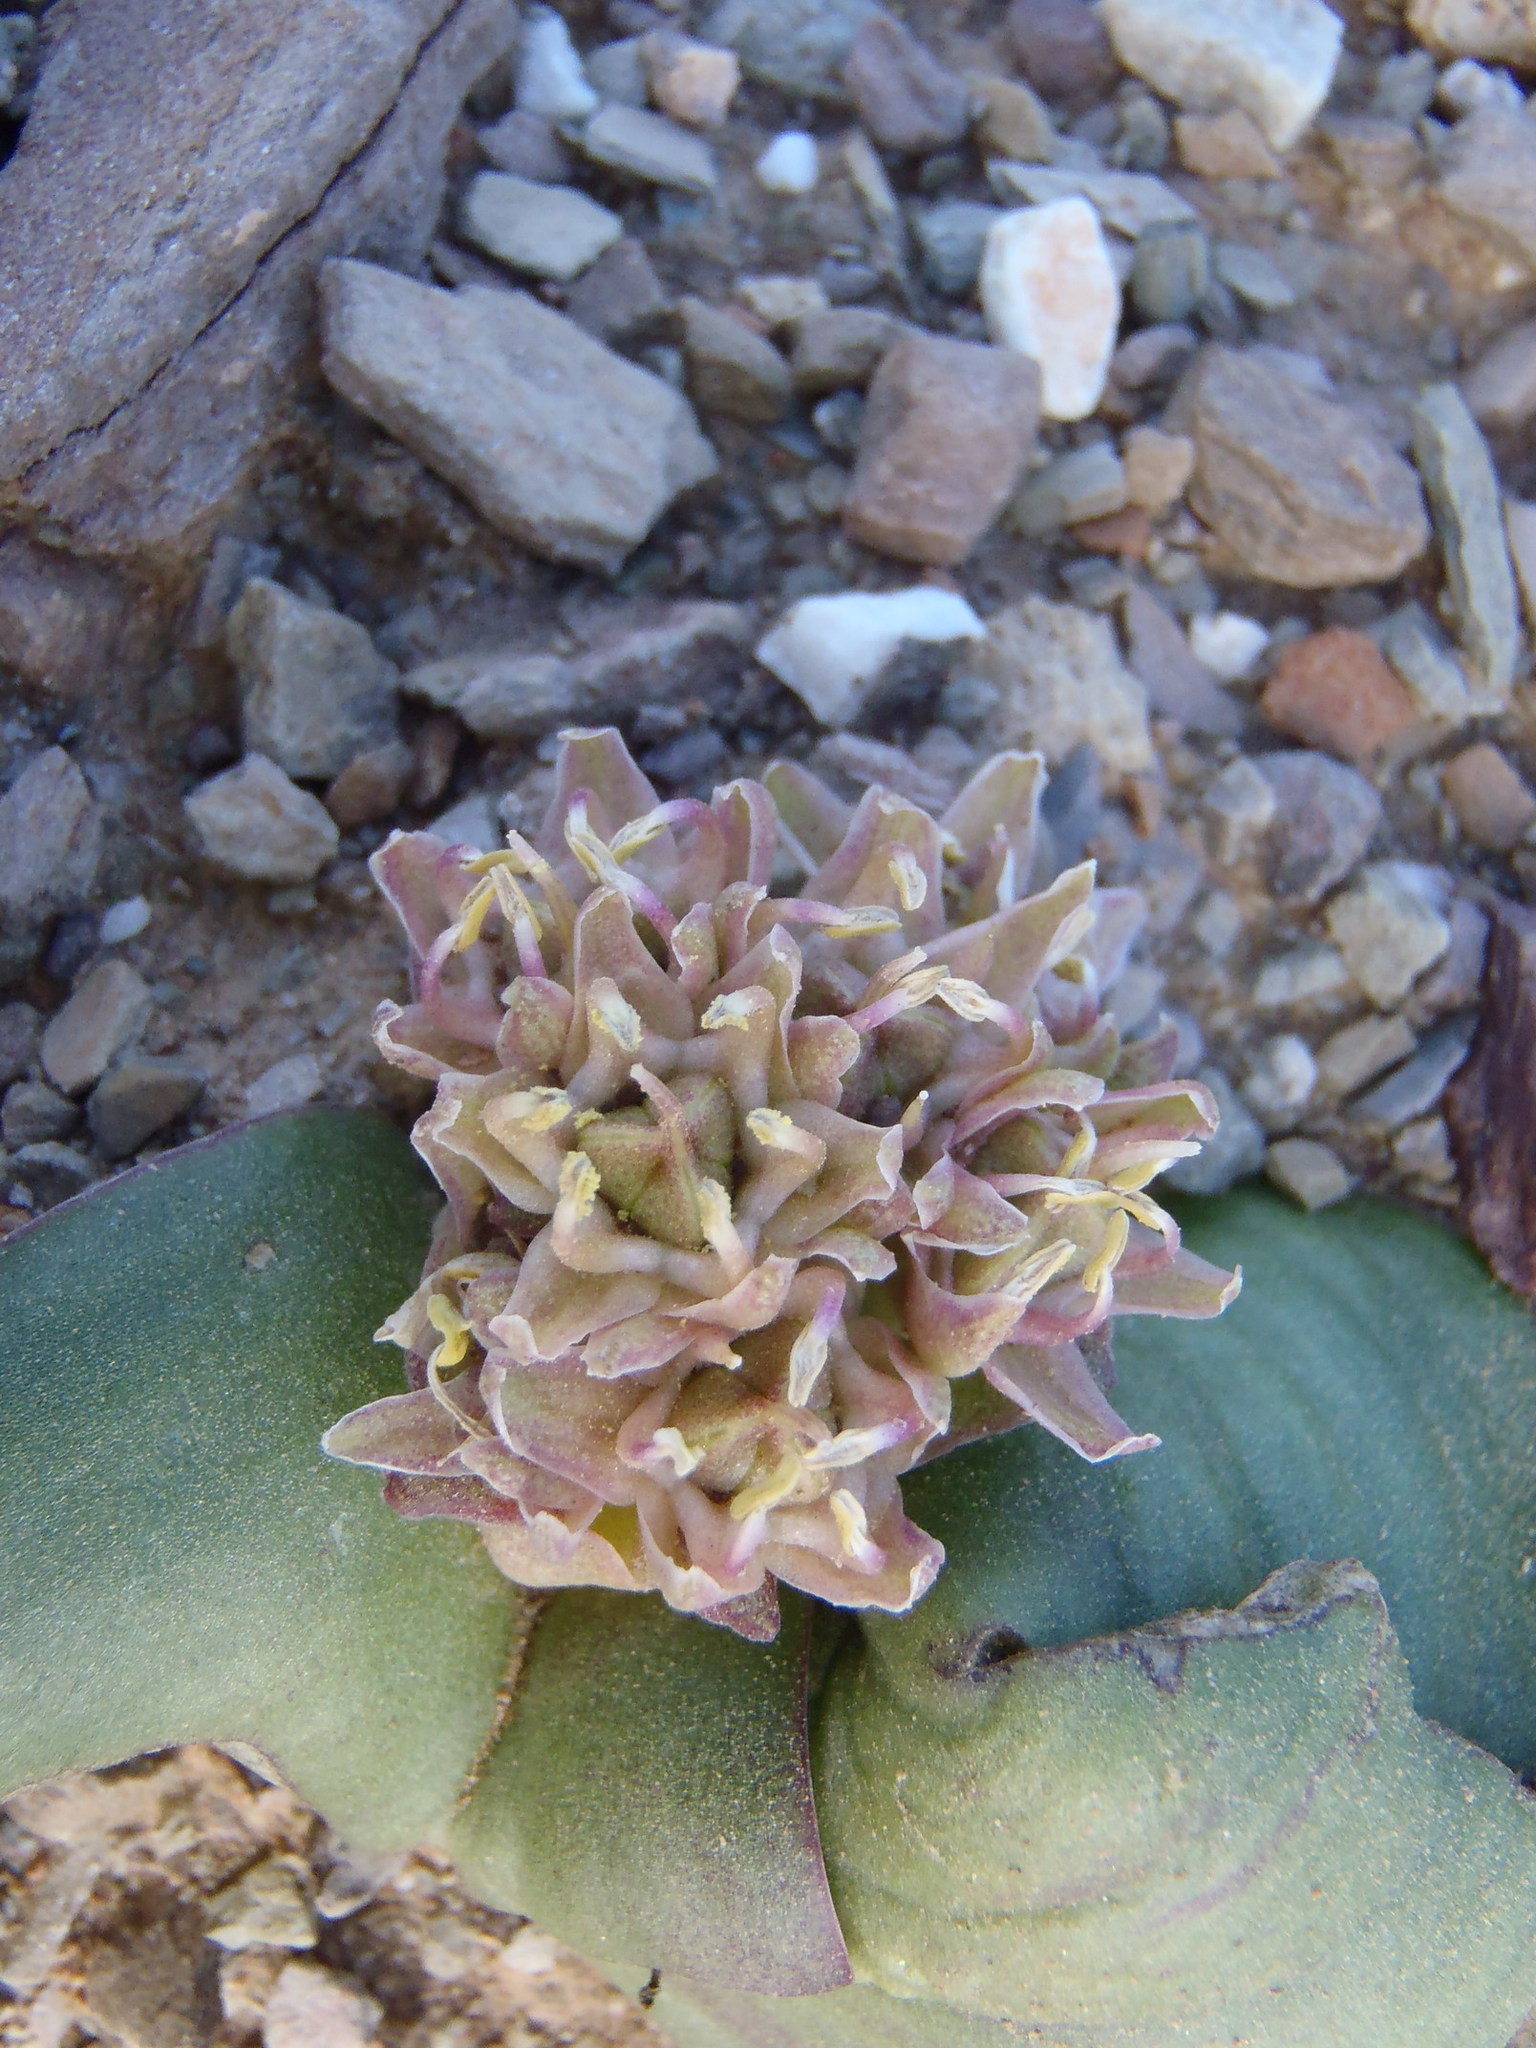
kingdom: Plantae
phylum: Tracheophyta
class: Liliopsida
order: Asparagales
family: Asparagaceae
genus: Massonia
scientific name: Massonia obermeyerae
